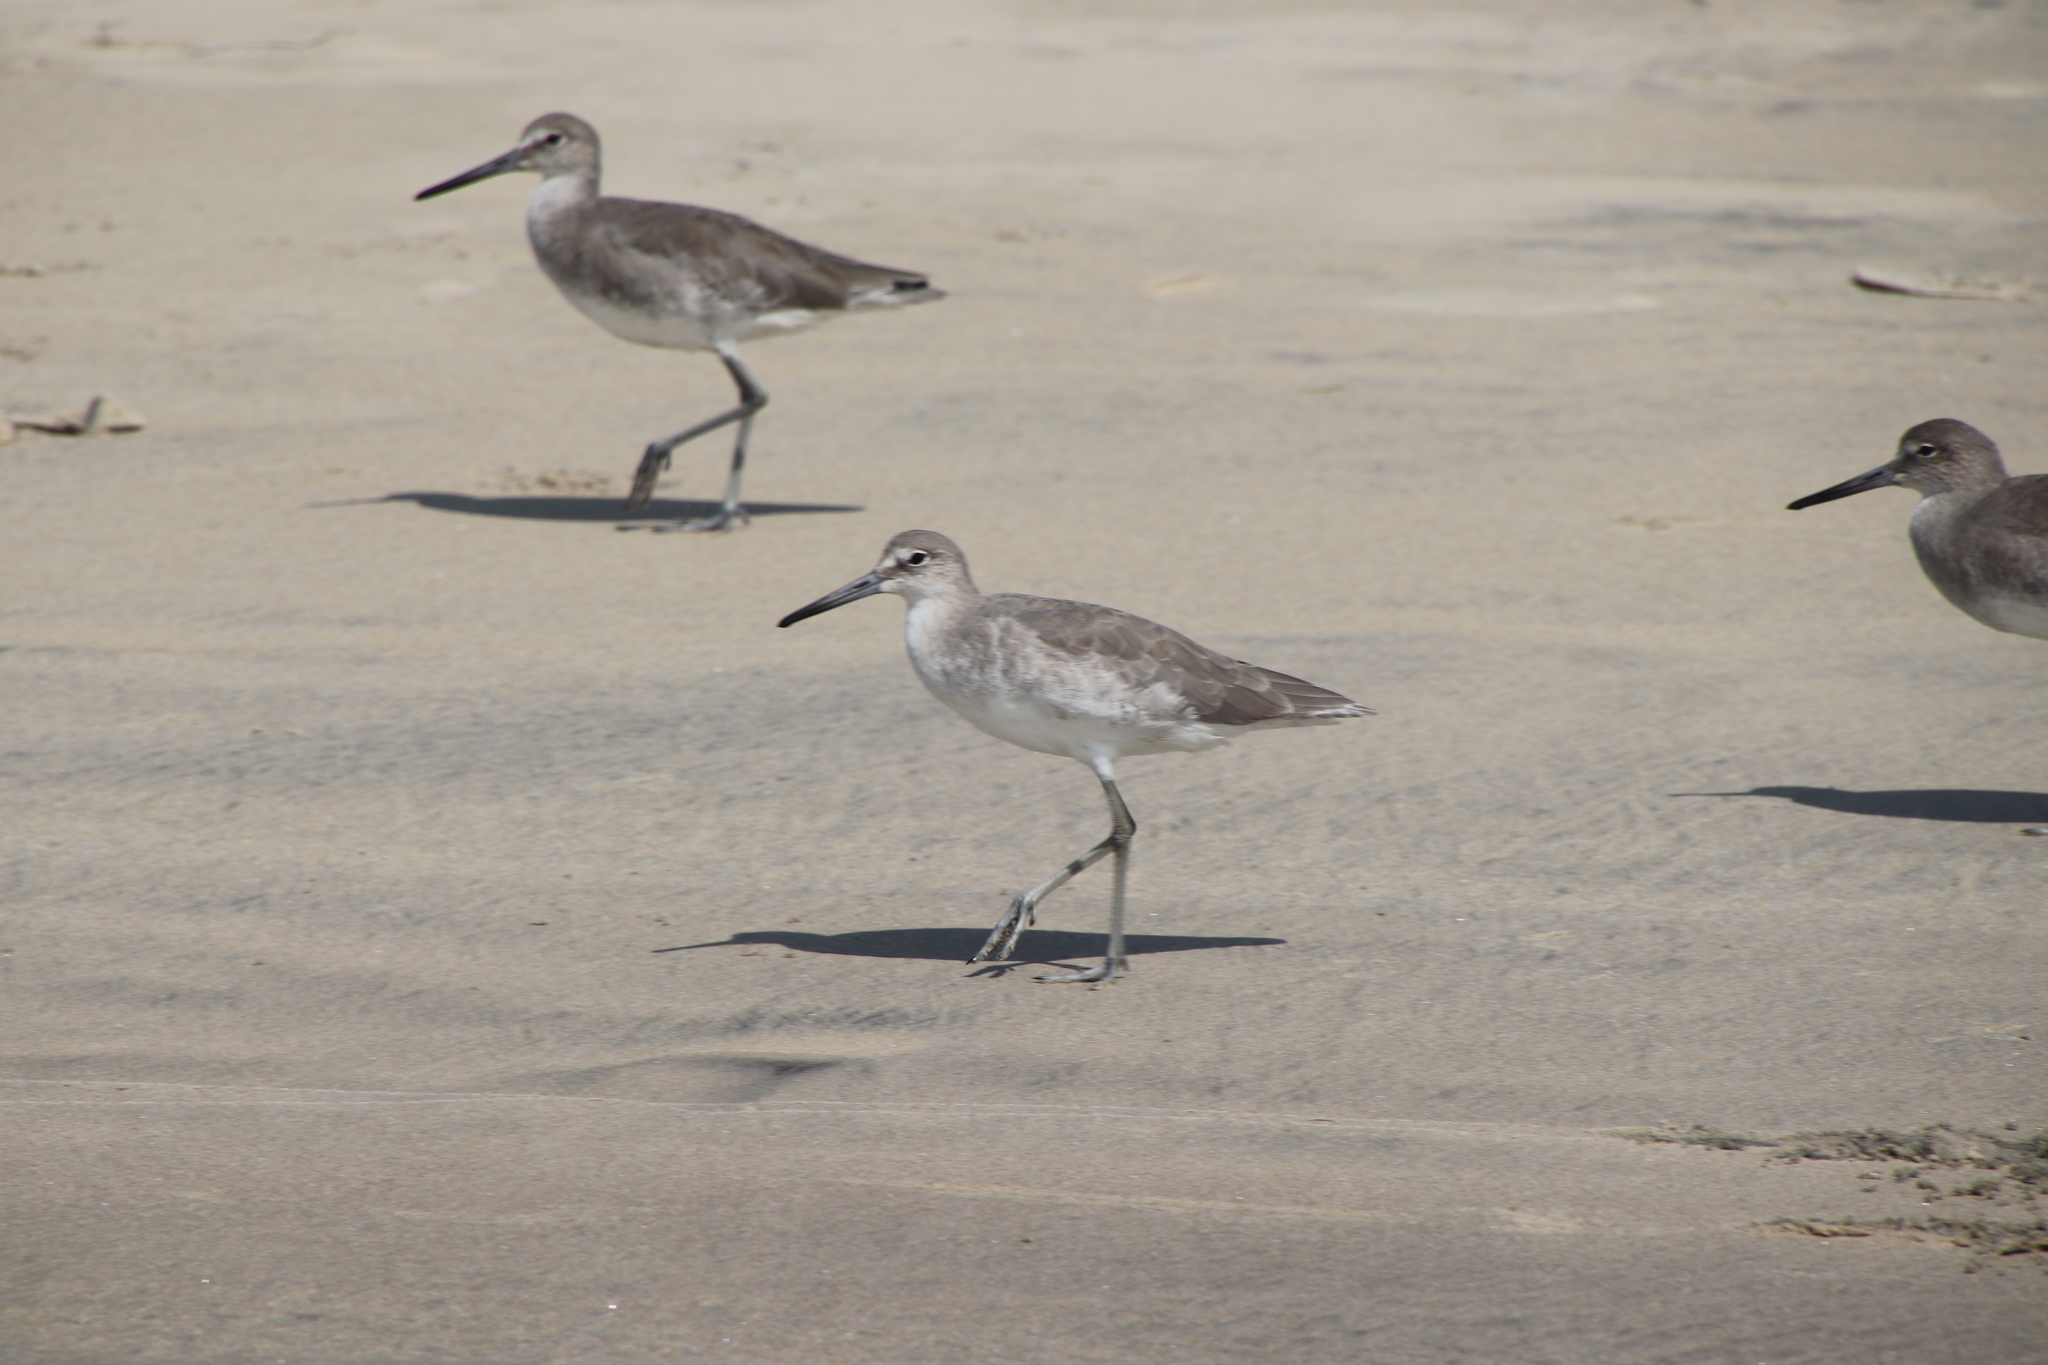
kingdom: Animalia
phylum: Chordata
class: Aves
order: Charadriiformes
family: Scolopacidae
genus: Tringa
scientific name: Tringa semipalmata
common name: Willet
